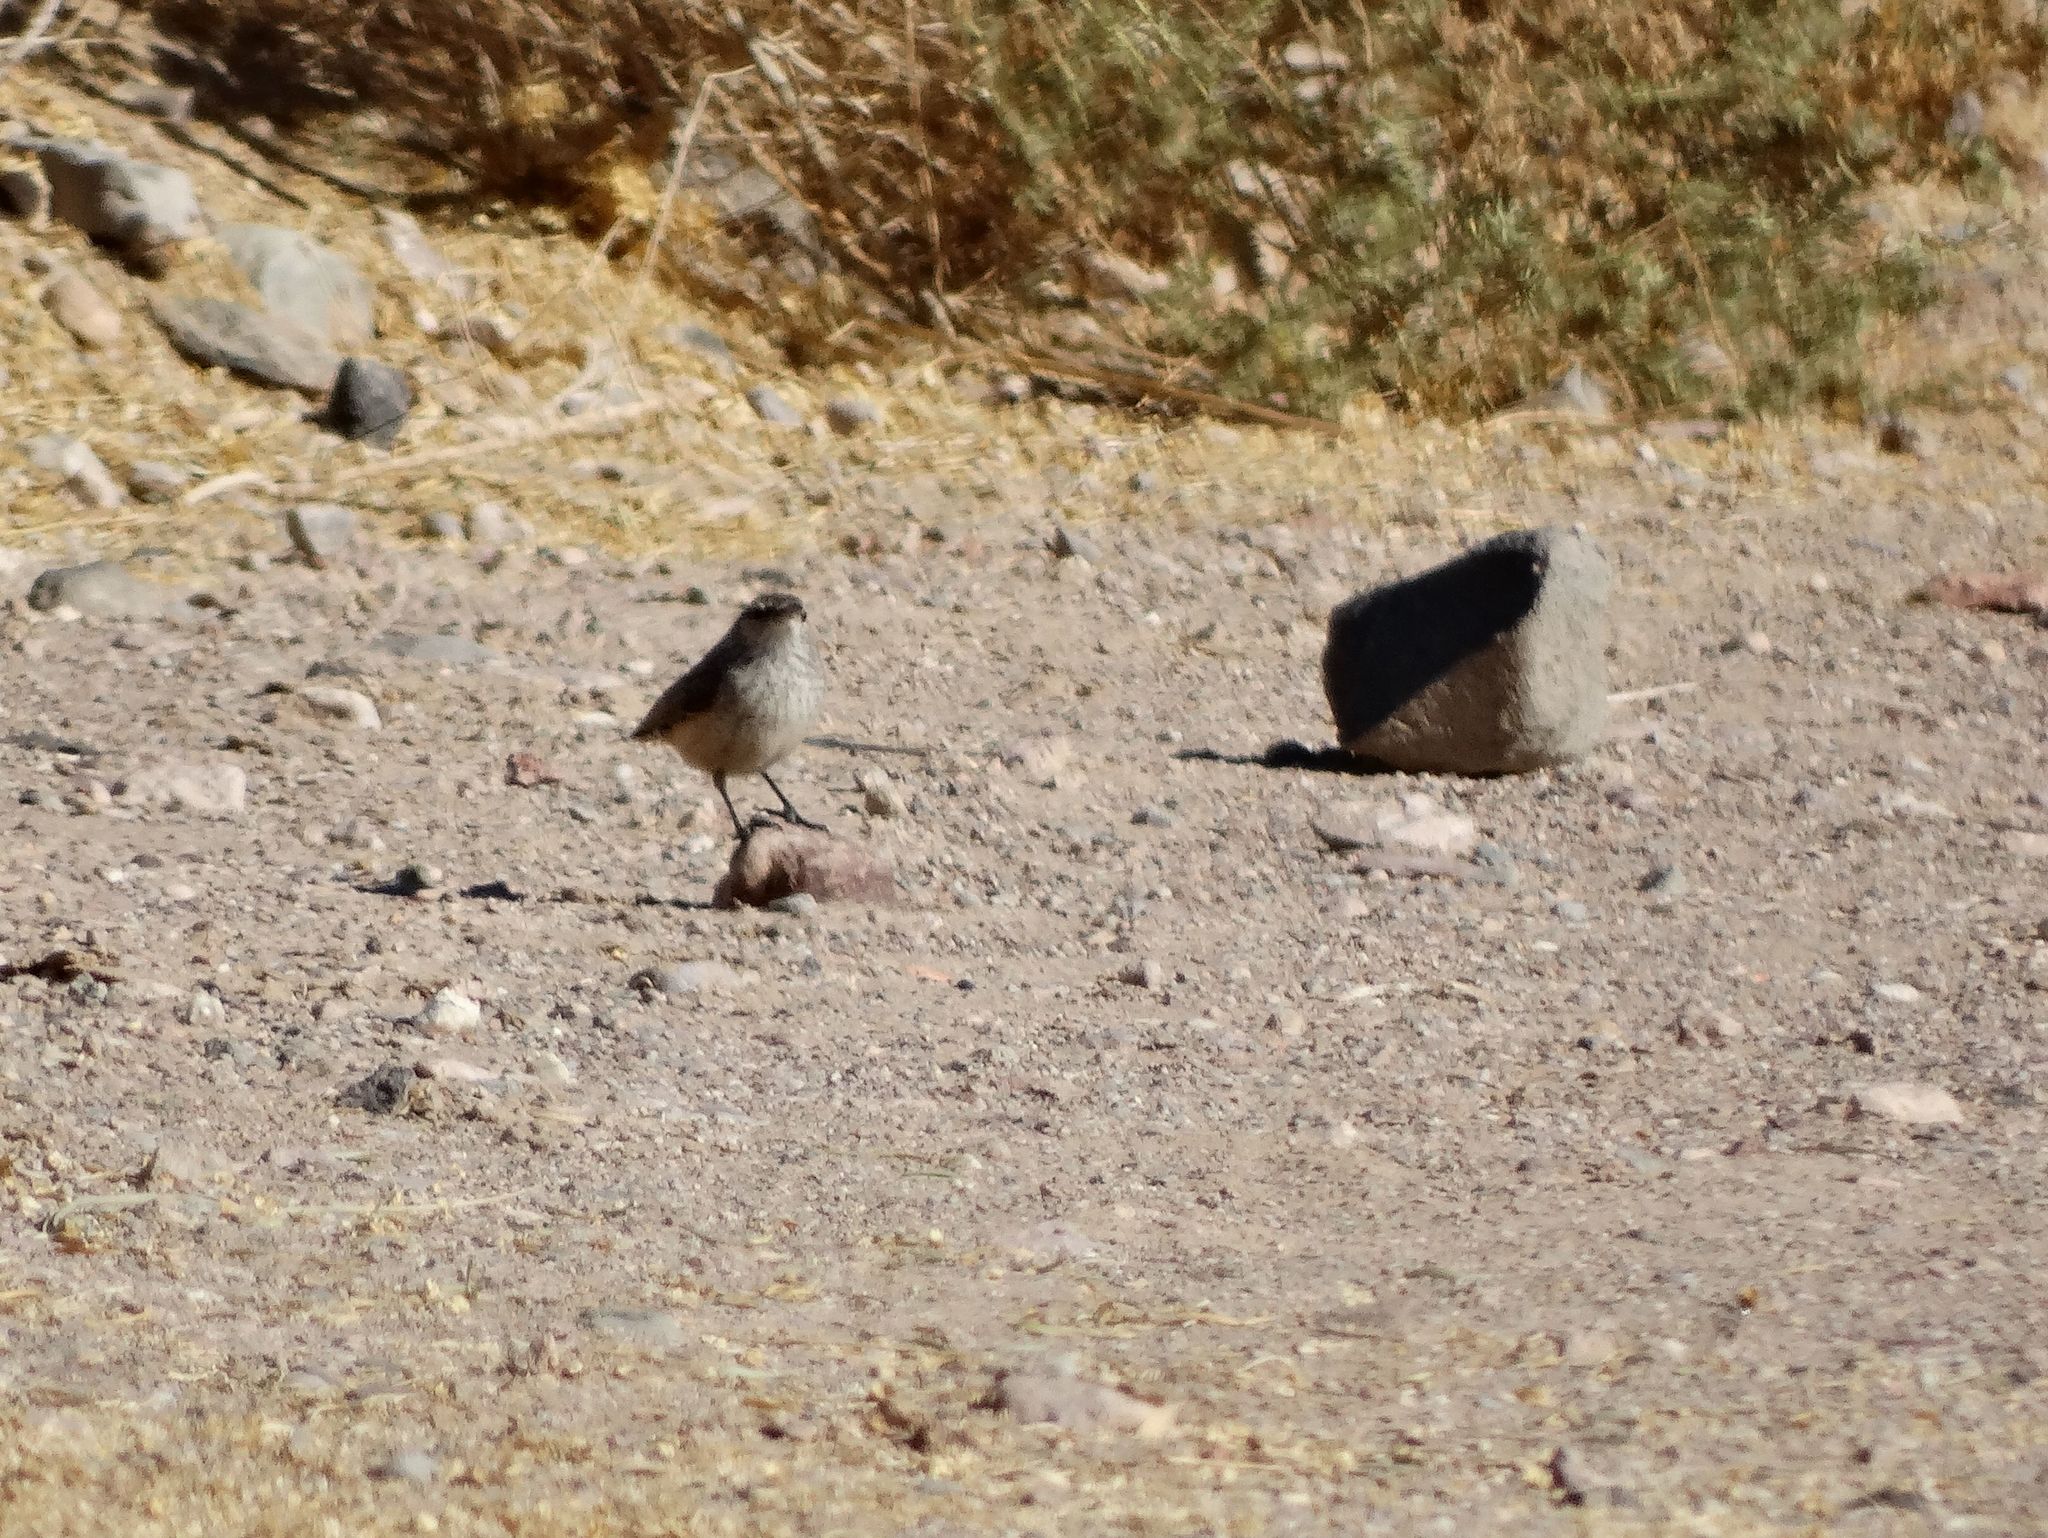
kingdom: Animalia
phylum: Chordata
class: Aves
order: Passeriformes
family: Troglodytidae
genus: Salpinctes
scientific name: Salpinctes obsoletus
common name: Rock wren
